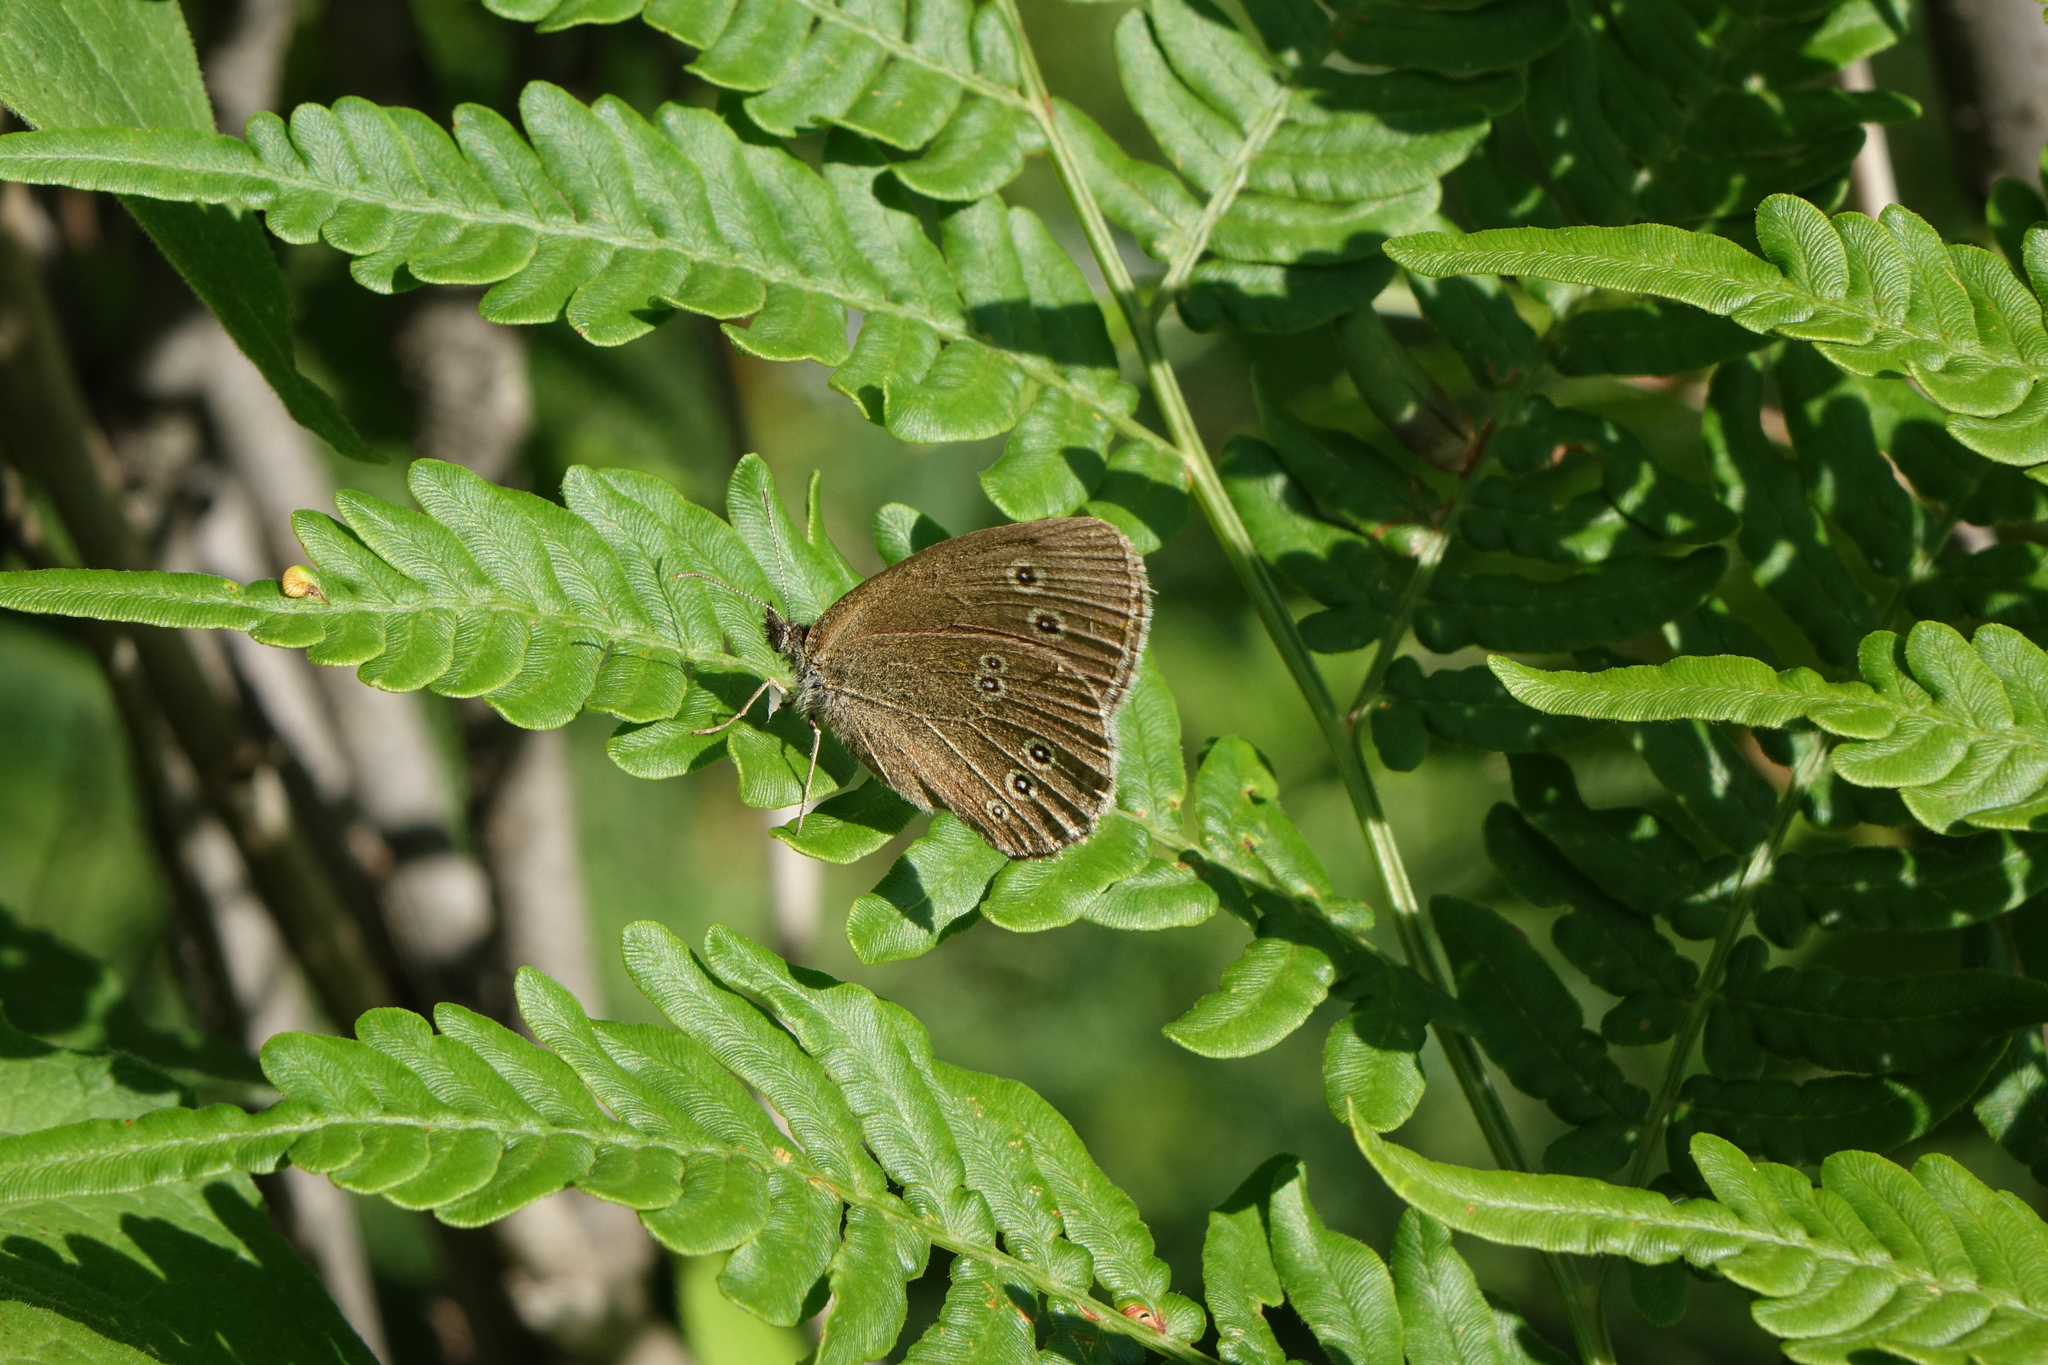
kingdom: Plantae
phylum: Tracheophyta
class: Polypodiopsida
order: Polypodiales
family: Dennstaedtiaceae
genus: Pteridium
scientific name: Pteridium aquilinum
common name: Bracken
